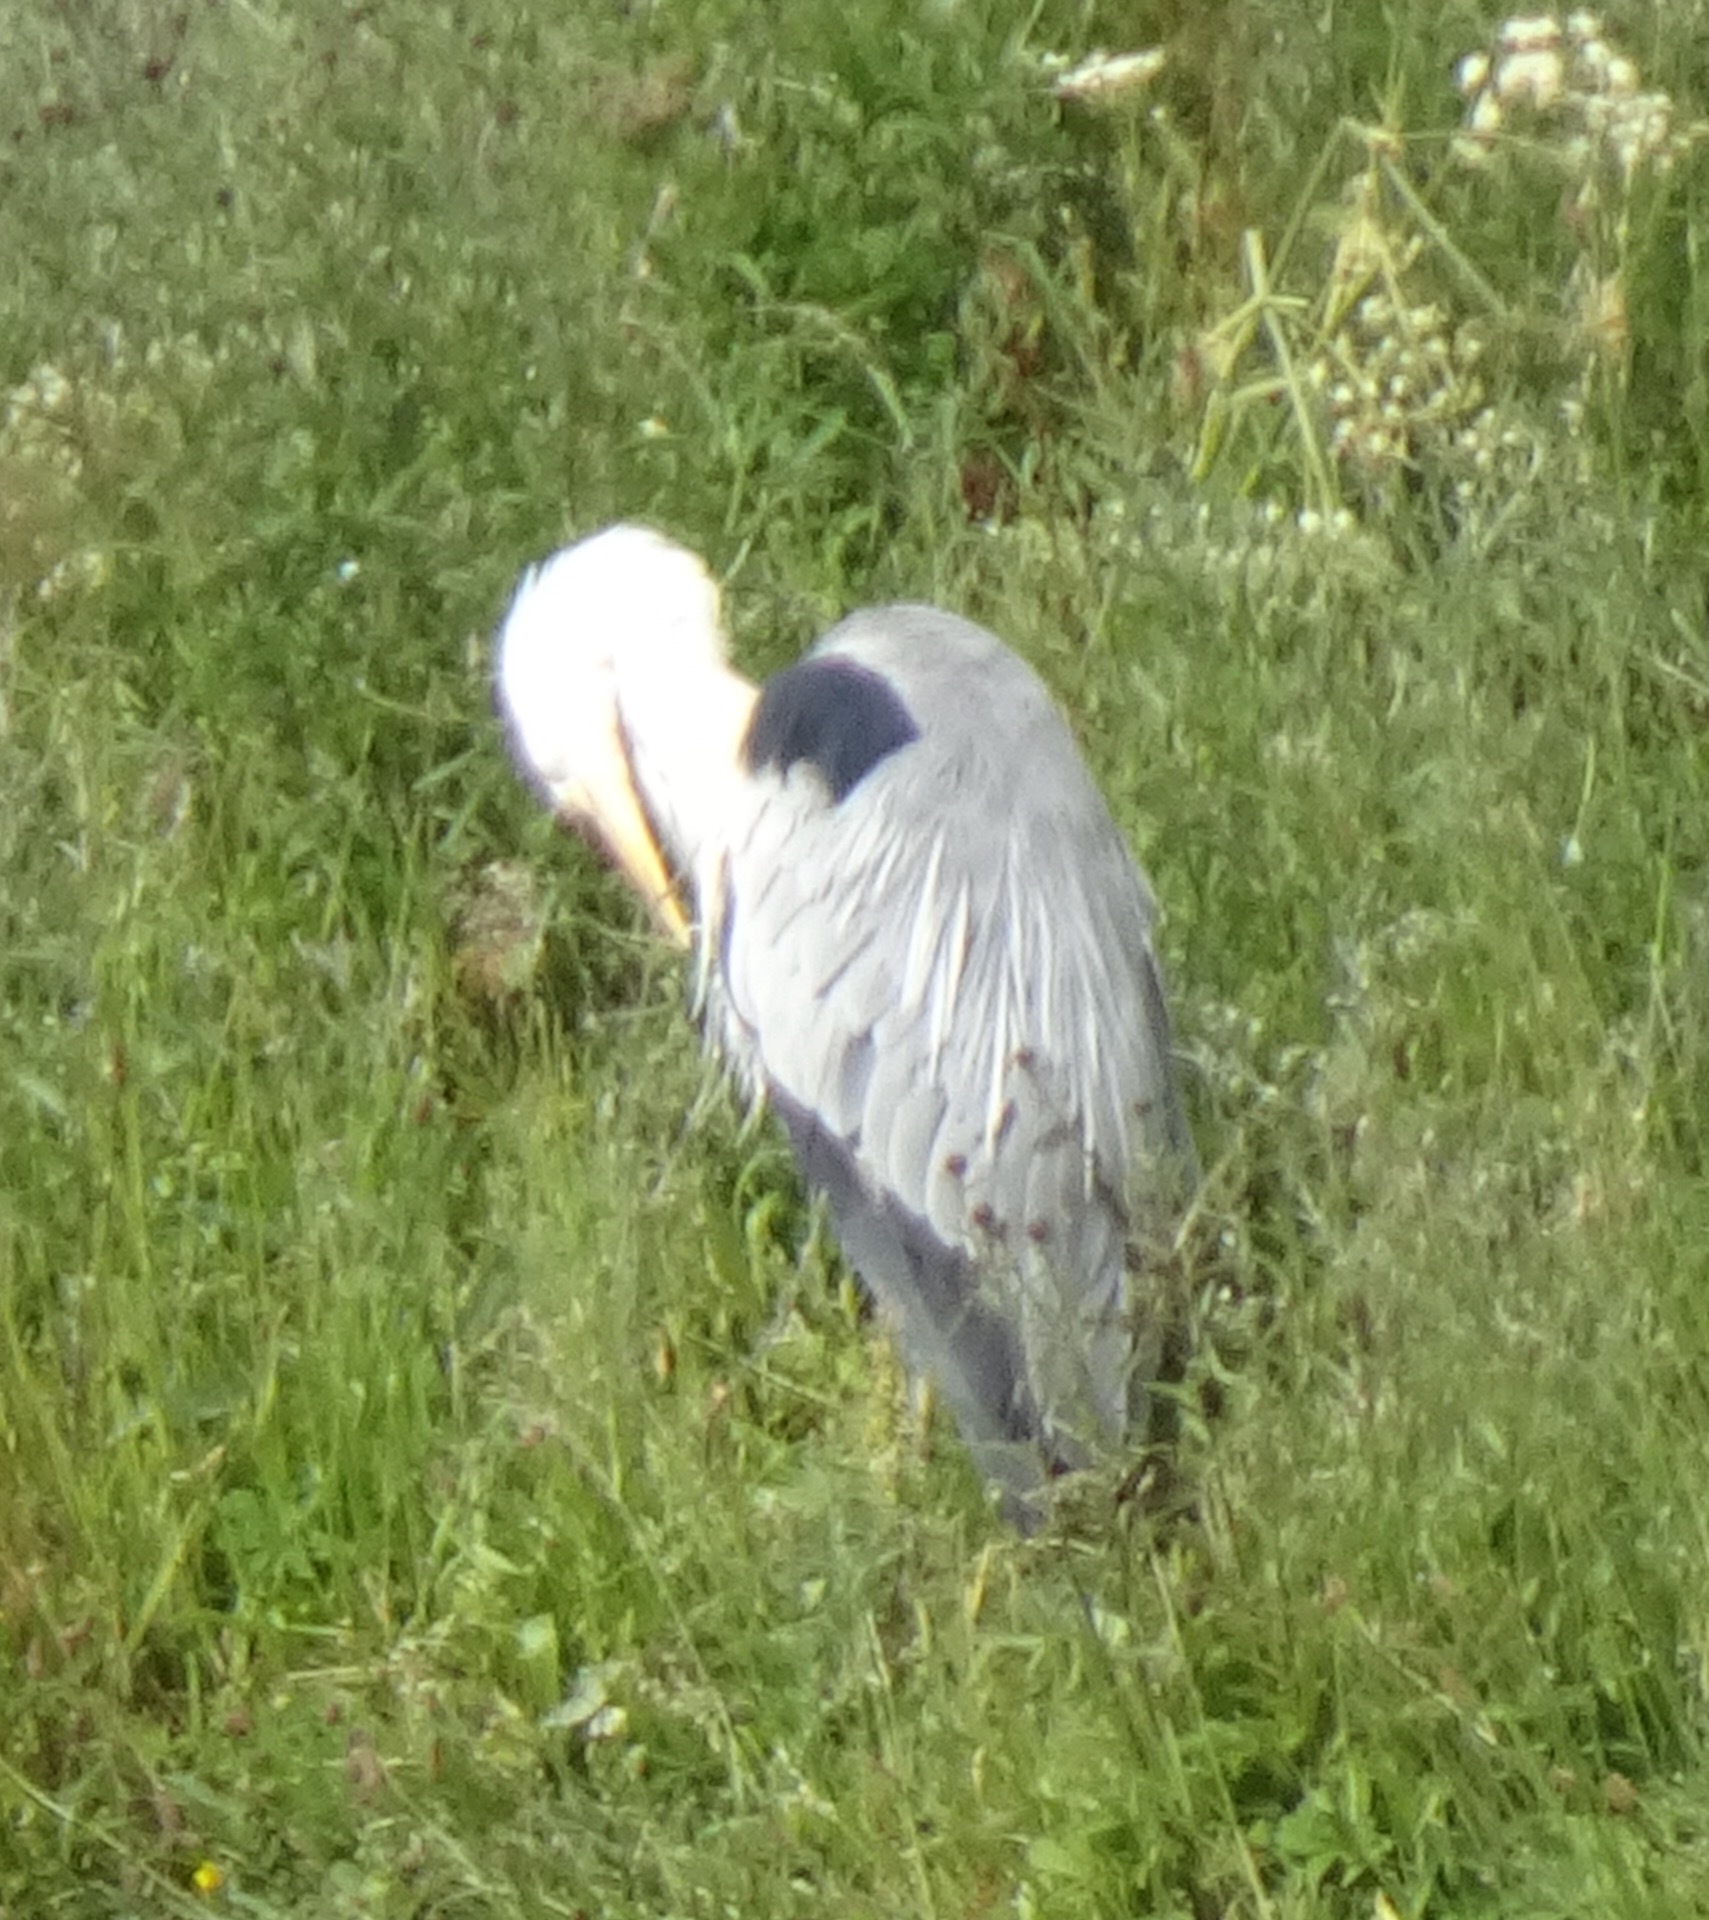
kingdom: Animalia
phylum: Chordata
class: Aves
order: Pelecaniformes
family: Ardeidae
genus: Ardea
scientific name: Ardea cinerea
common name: Grey heron
